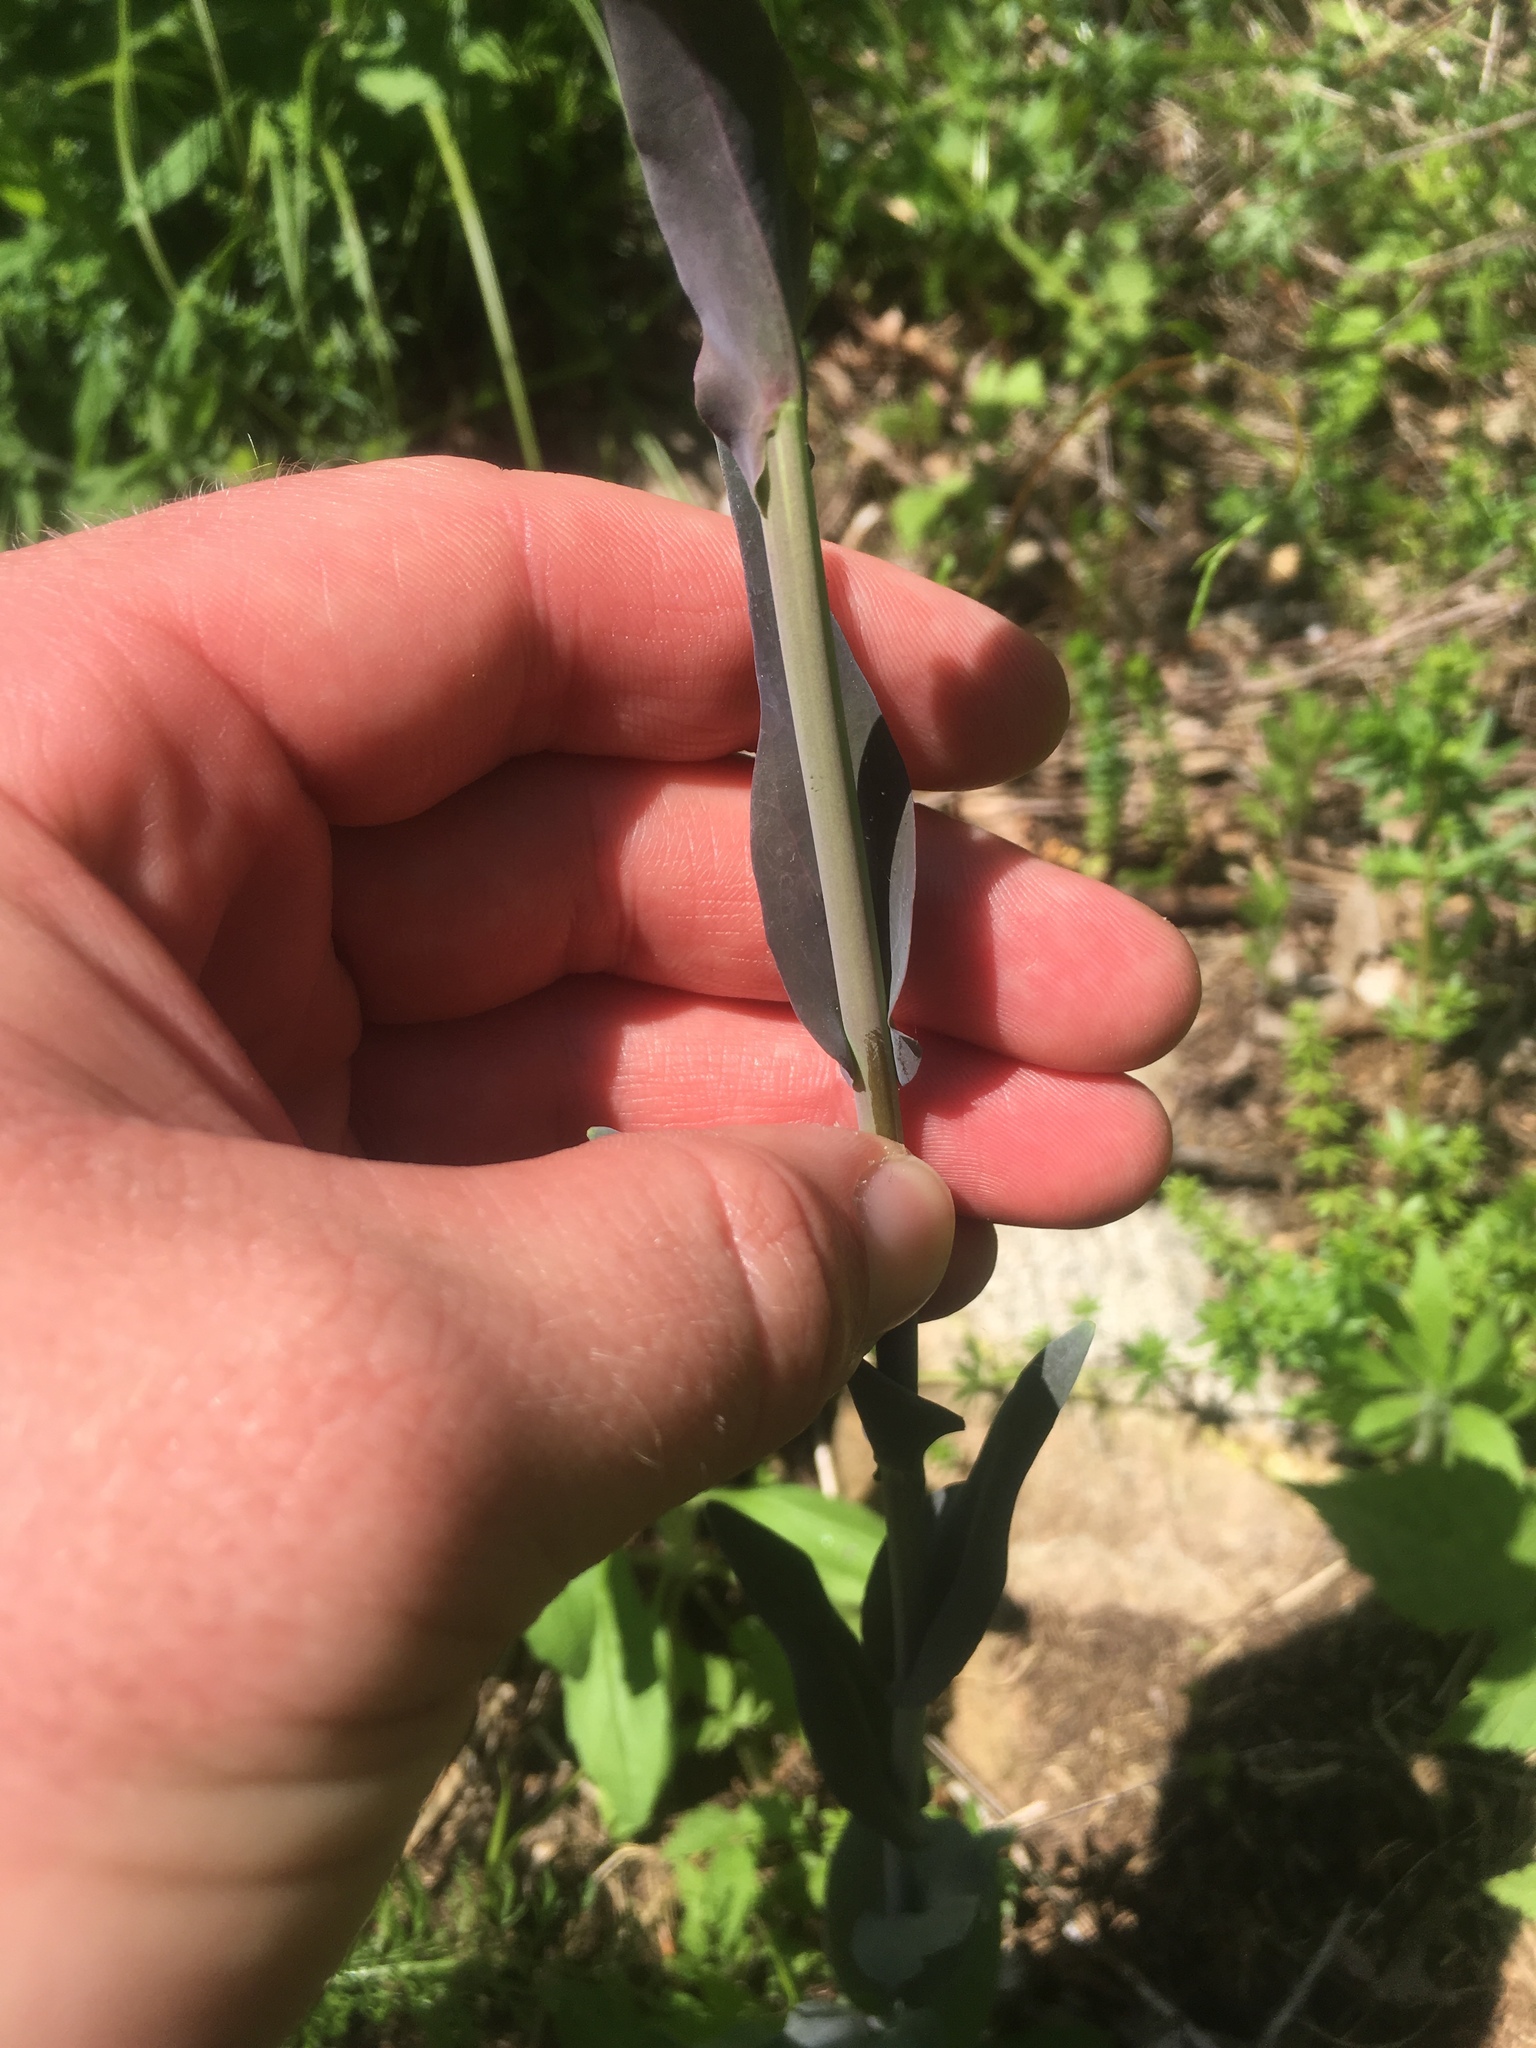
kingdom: Plantae
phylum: Tracheophyta
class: Magnoliopsida
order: Brassicales
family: Brassicaceae
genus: Turritis
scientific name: Turritis glabra
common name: Tower rockcress
